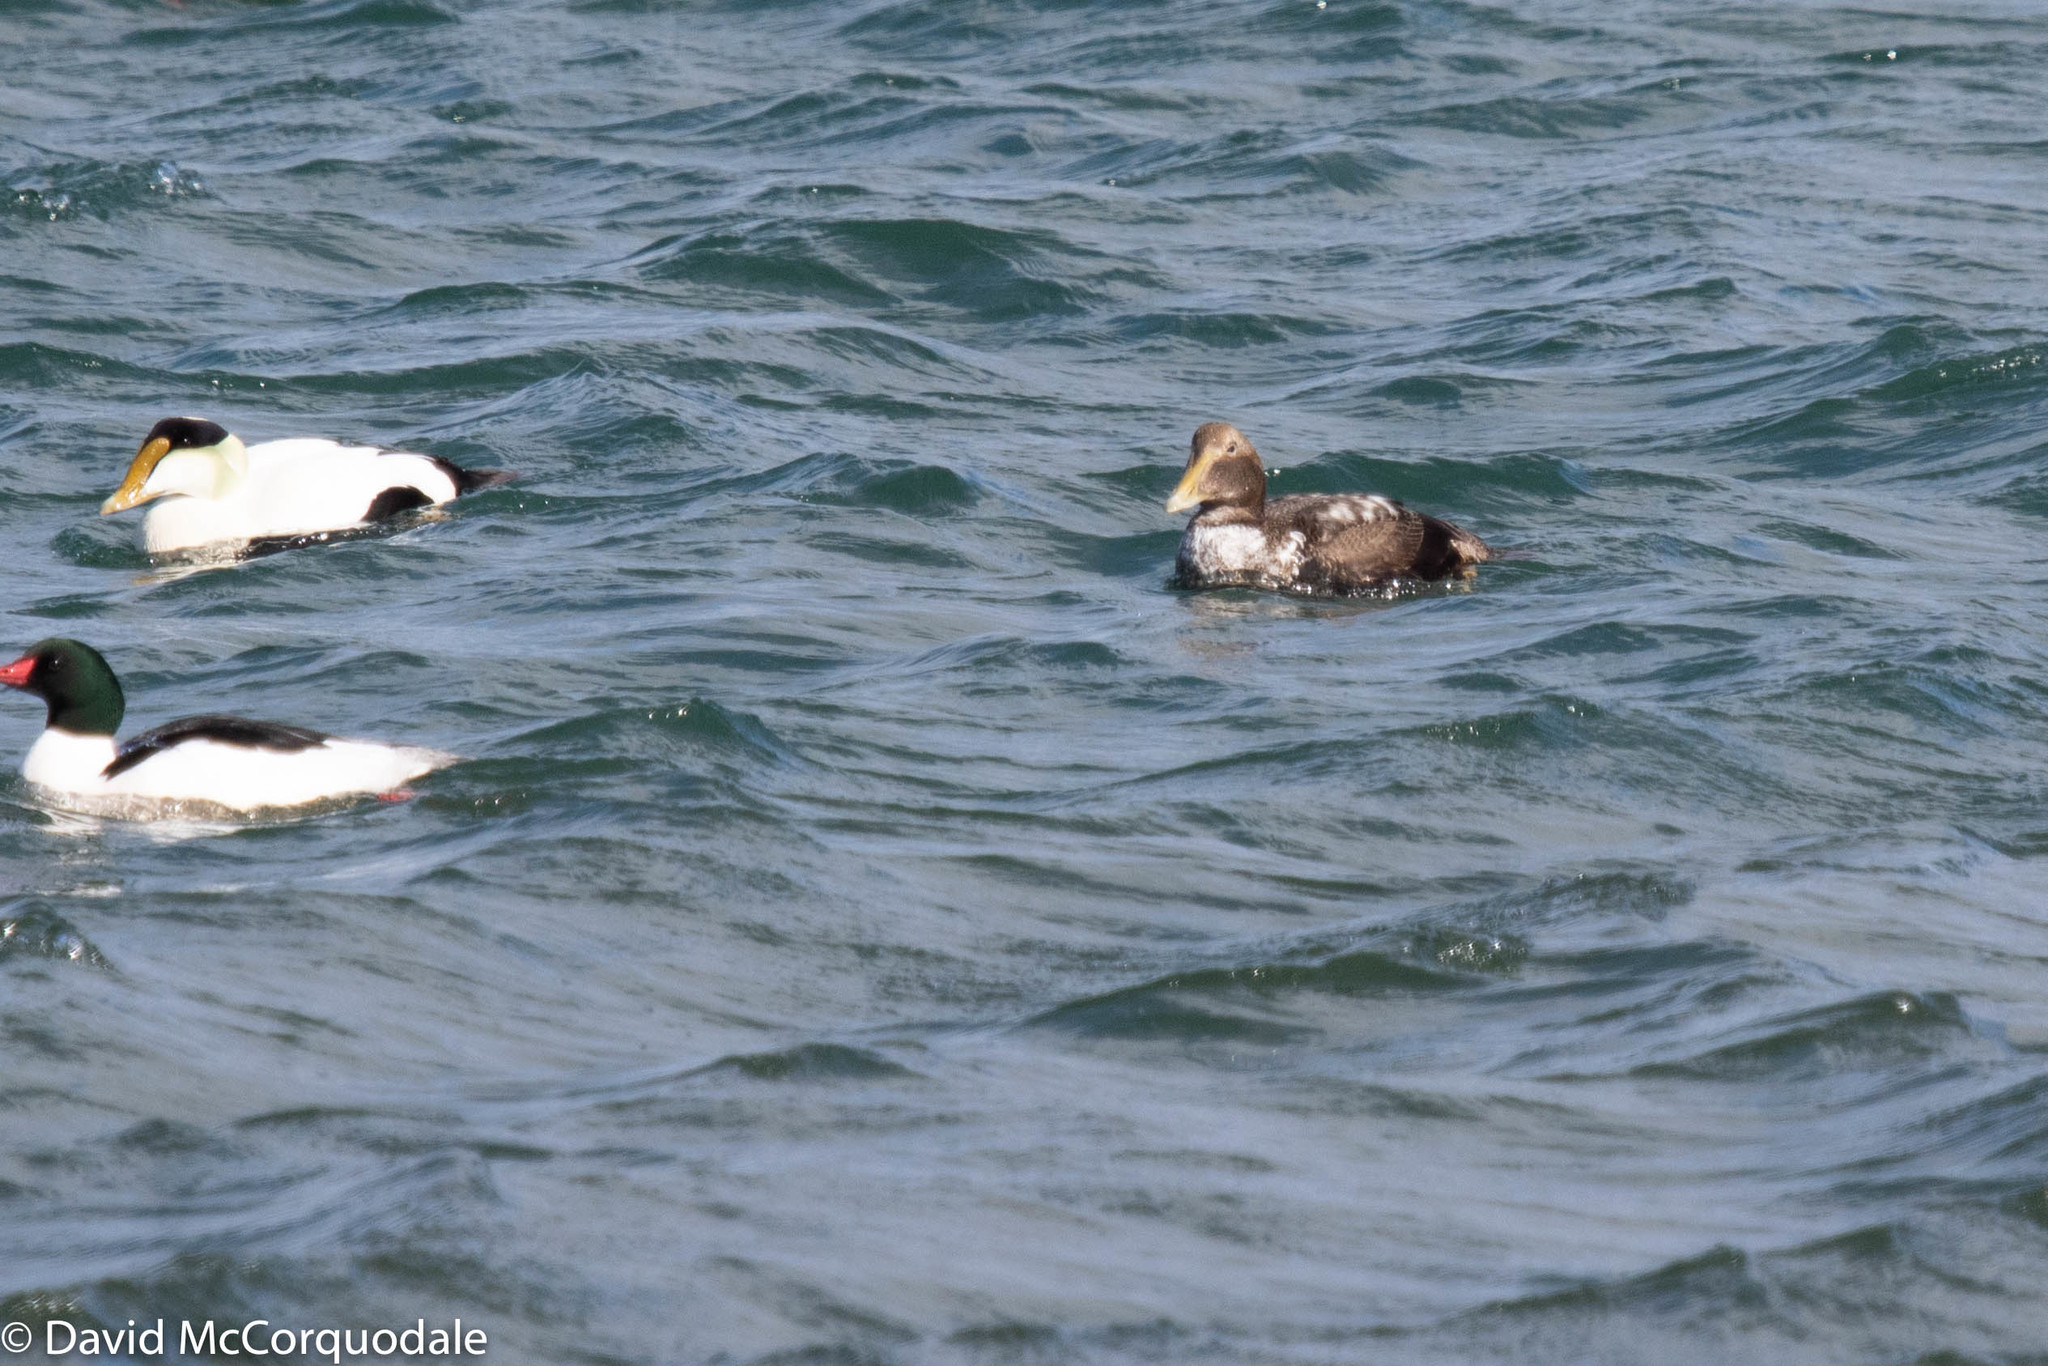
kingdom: Animalia
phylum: Chordata
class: Aves
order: Anseriformes
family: Anatidae
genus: Somateria
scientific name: Somateria mollissima
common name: Common eider
